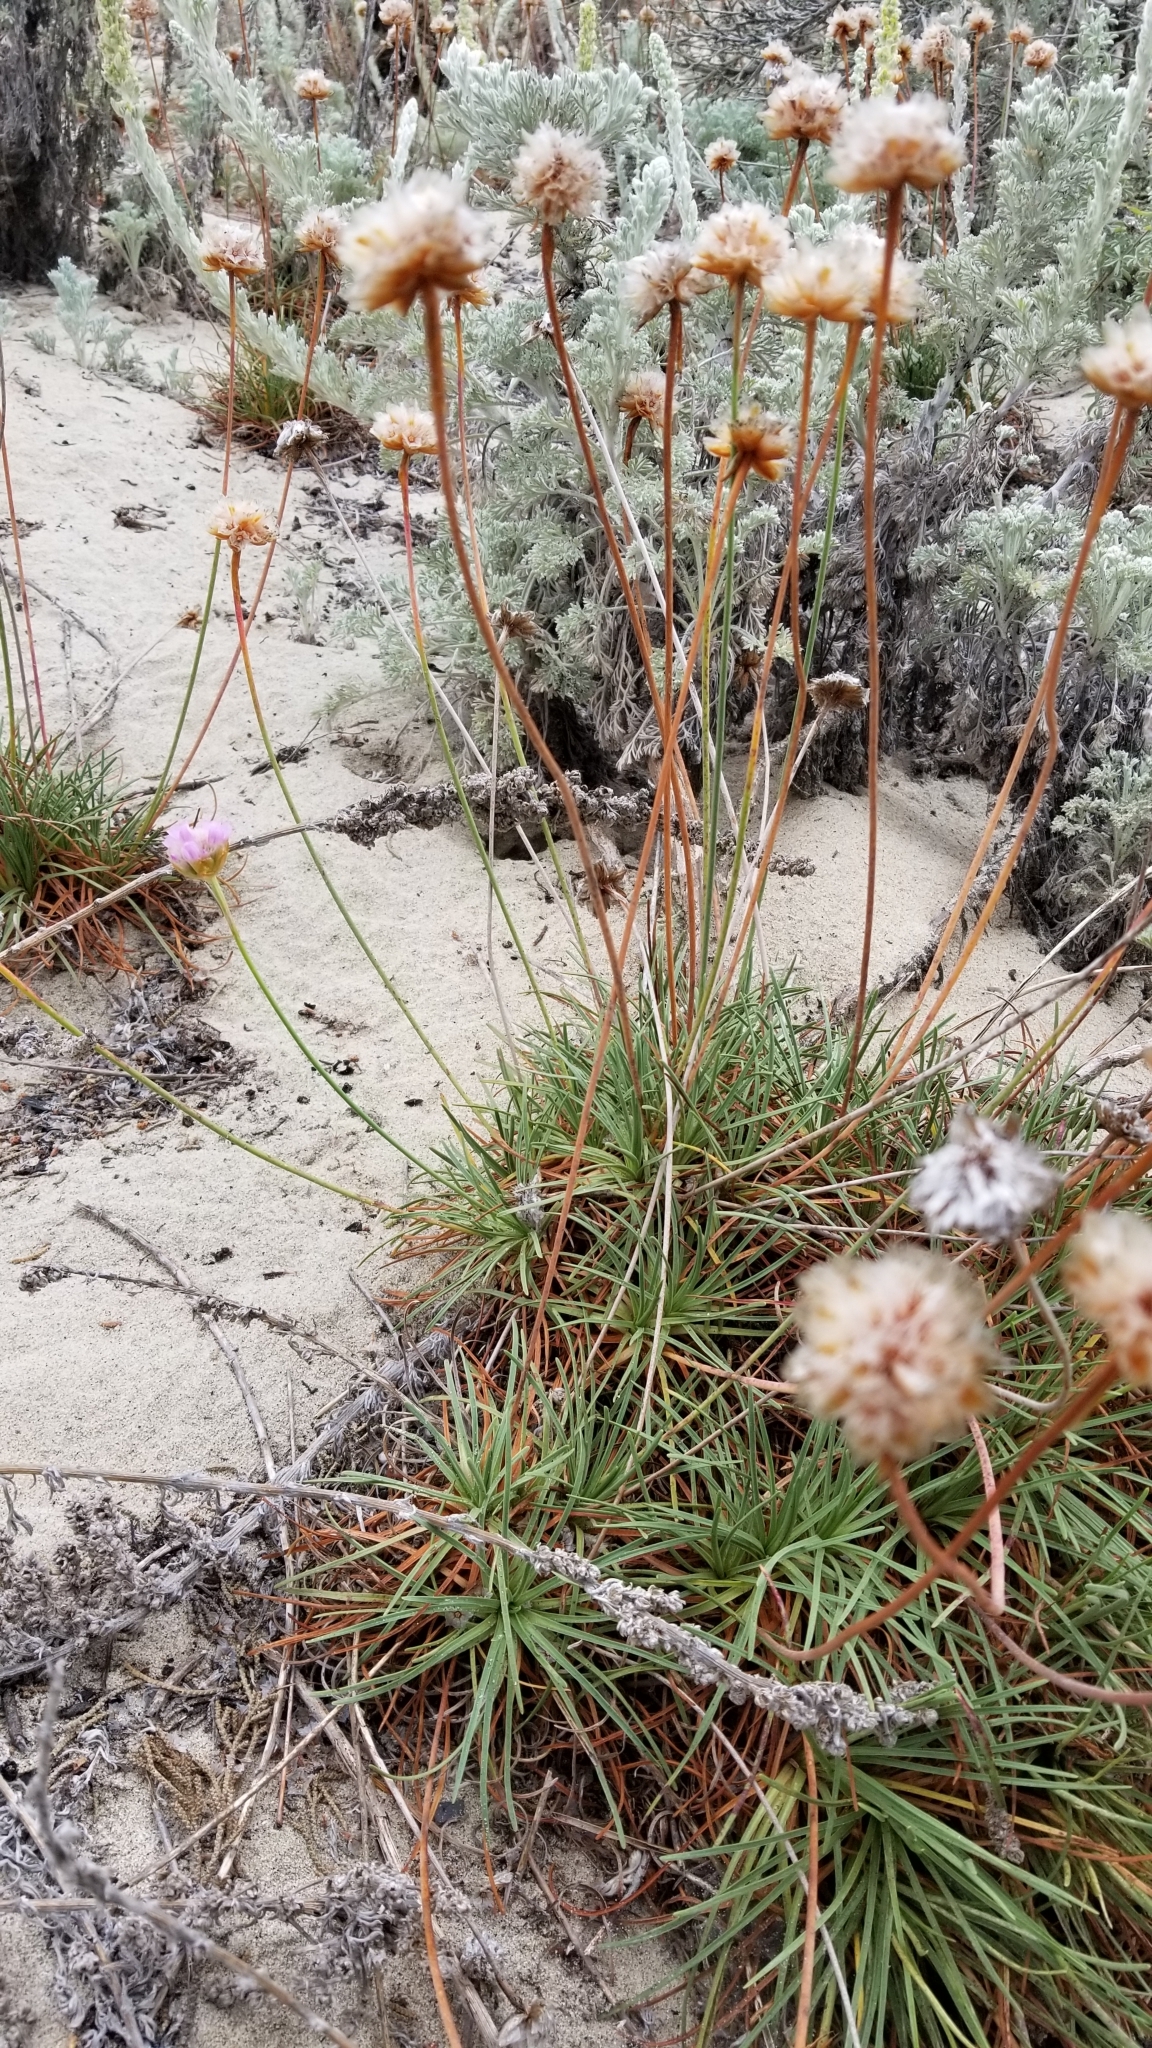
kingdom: Plantae
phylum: Tracheophyta
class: Magnoliopsida
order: Caryophyllales
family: Plumbaginaceae
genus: Armeria
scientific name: Armeria maritima
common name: Thrift
